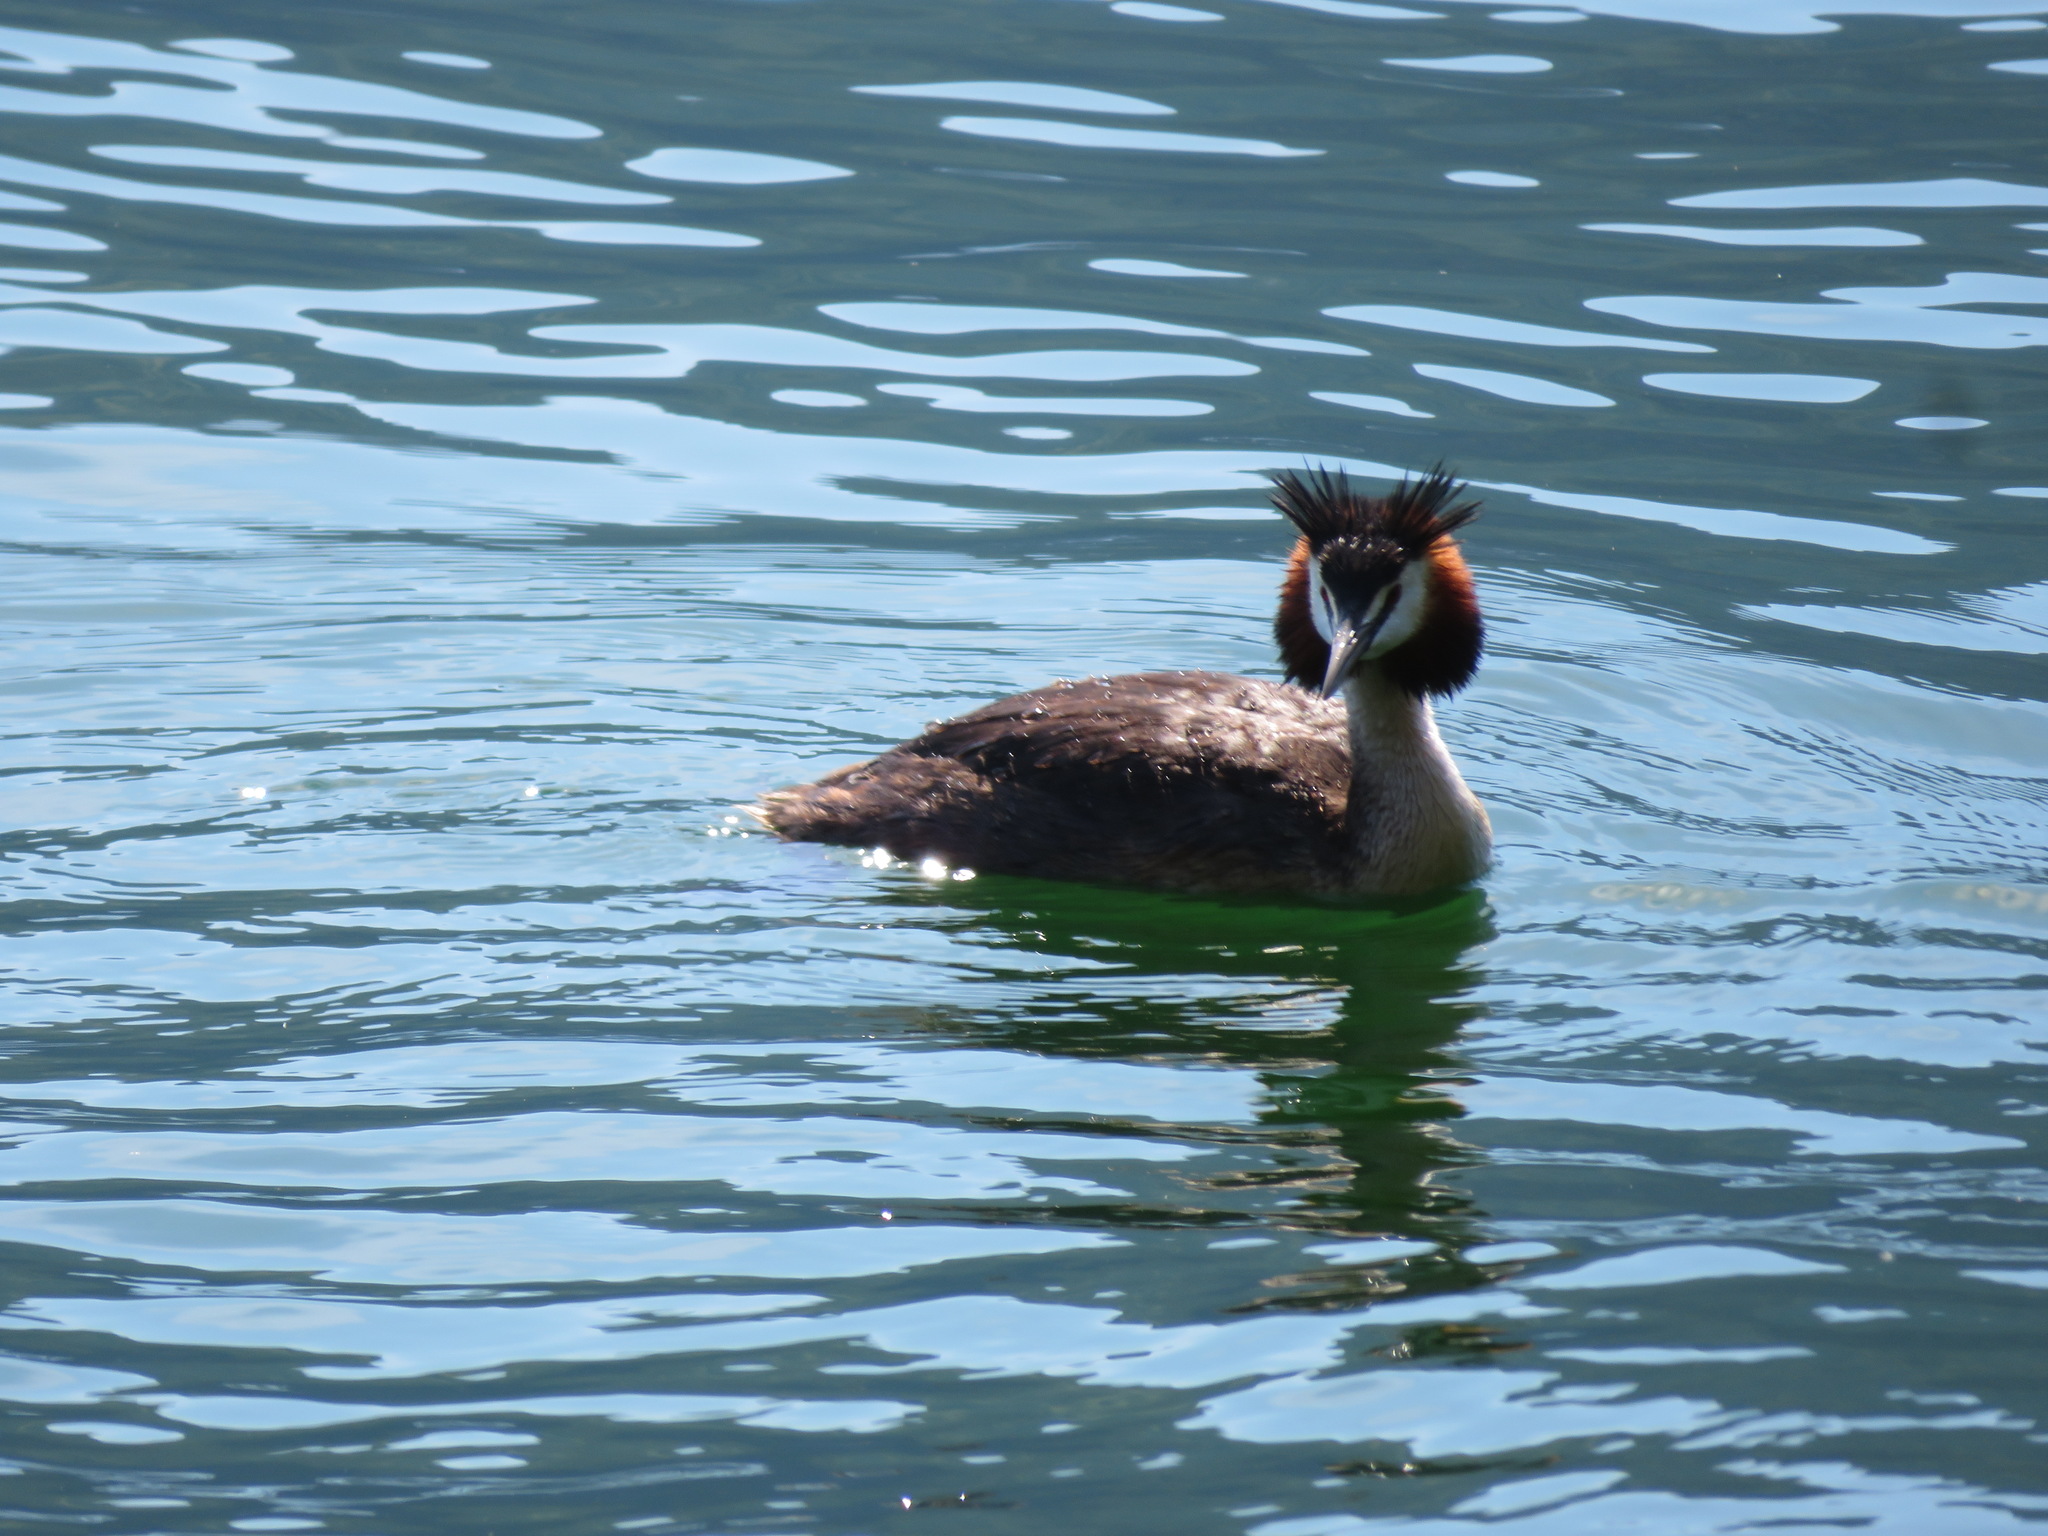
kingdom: Animalia
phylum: Chordata
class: Aves
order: Podicipediformes
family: Podicipedidae
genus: Podiceps
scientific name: Podiceps cristatus
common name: Great crested grebe
